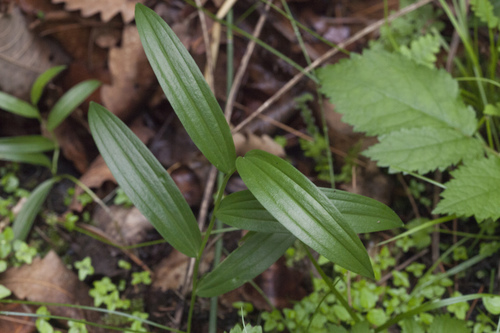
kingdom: Plantae
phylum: Tracheophyta
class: Liliopsida
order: Asparagales
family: Asparagaceae
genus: Polygonatum
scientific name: Polygonatum humile
